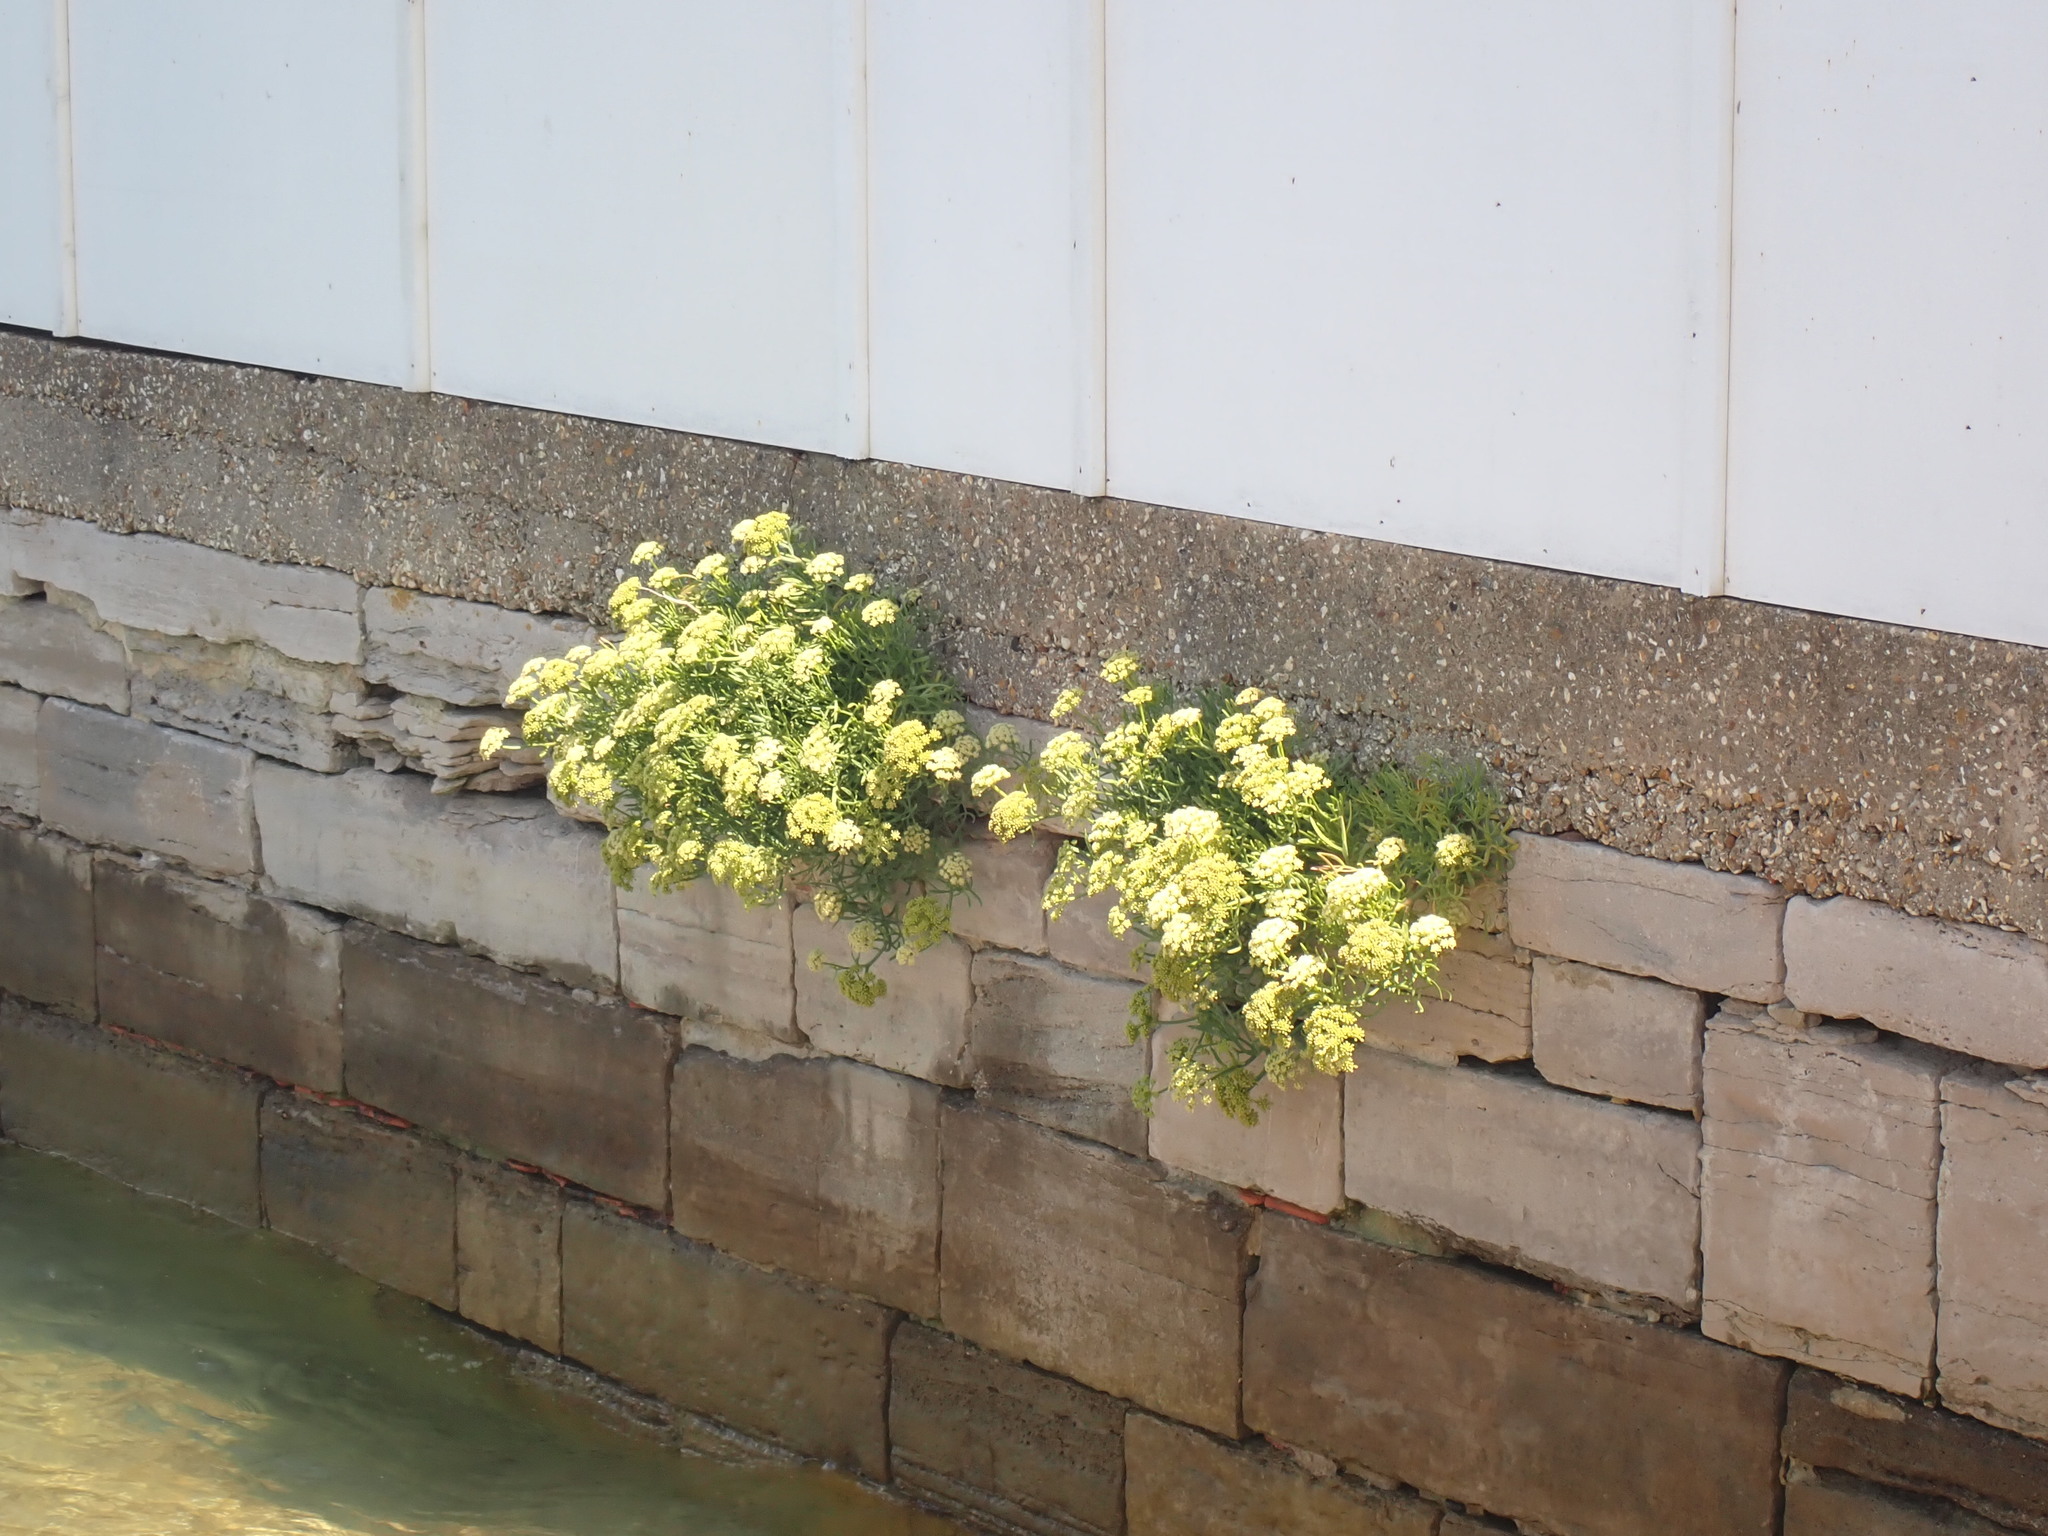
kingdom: Plantae
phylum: Tracheophyta
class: Magnoliopsida
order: Apiales
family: Apiaceae
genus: Crithmum
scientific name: Crithmum maritimum
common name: Rock samphire
